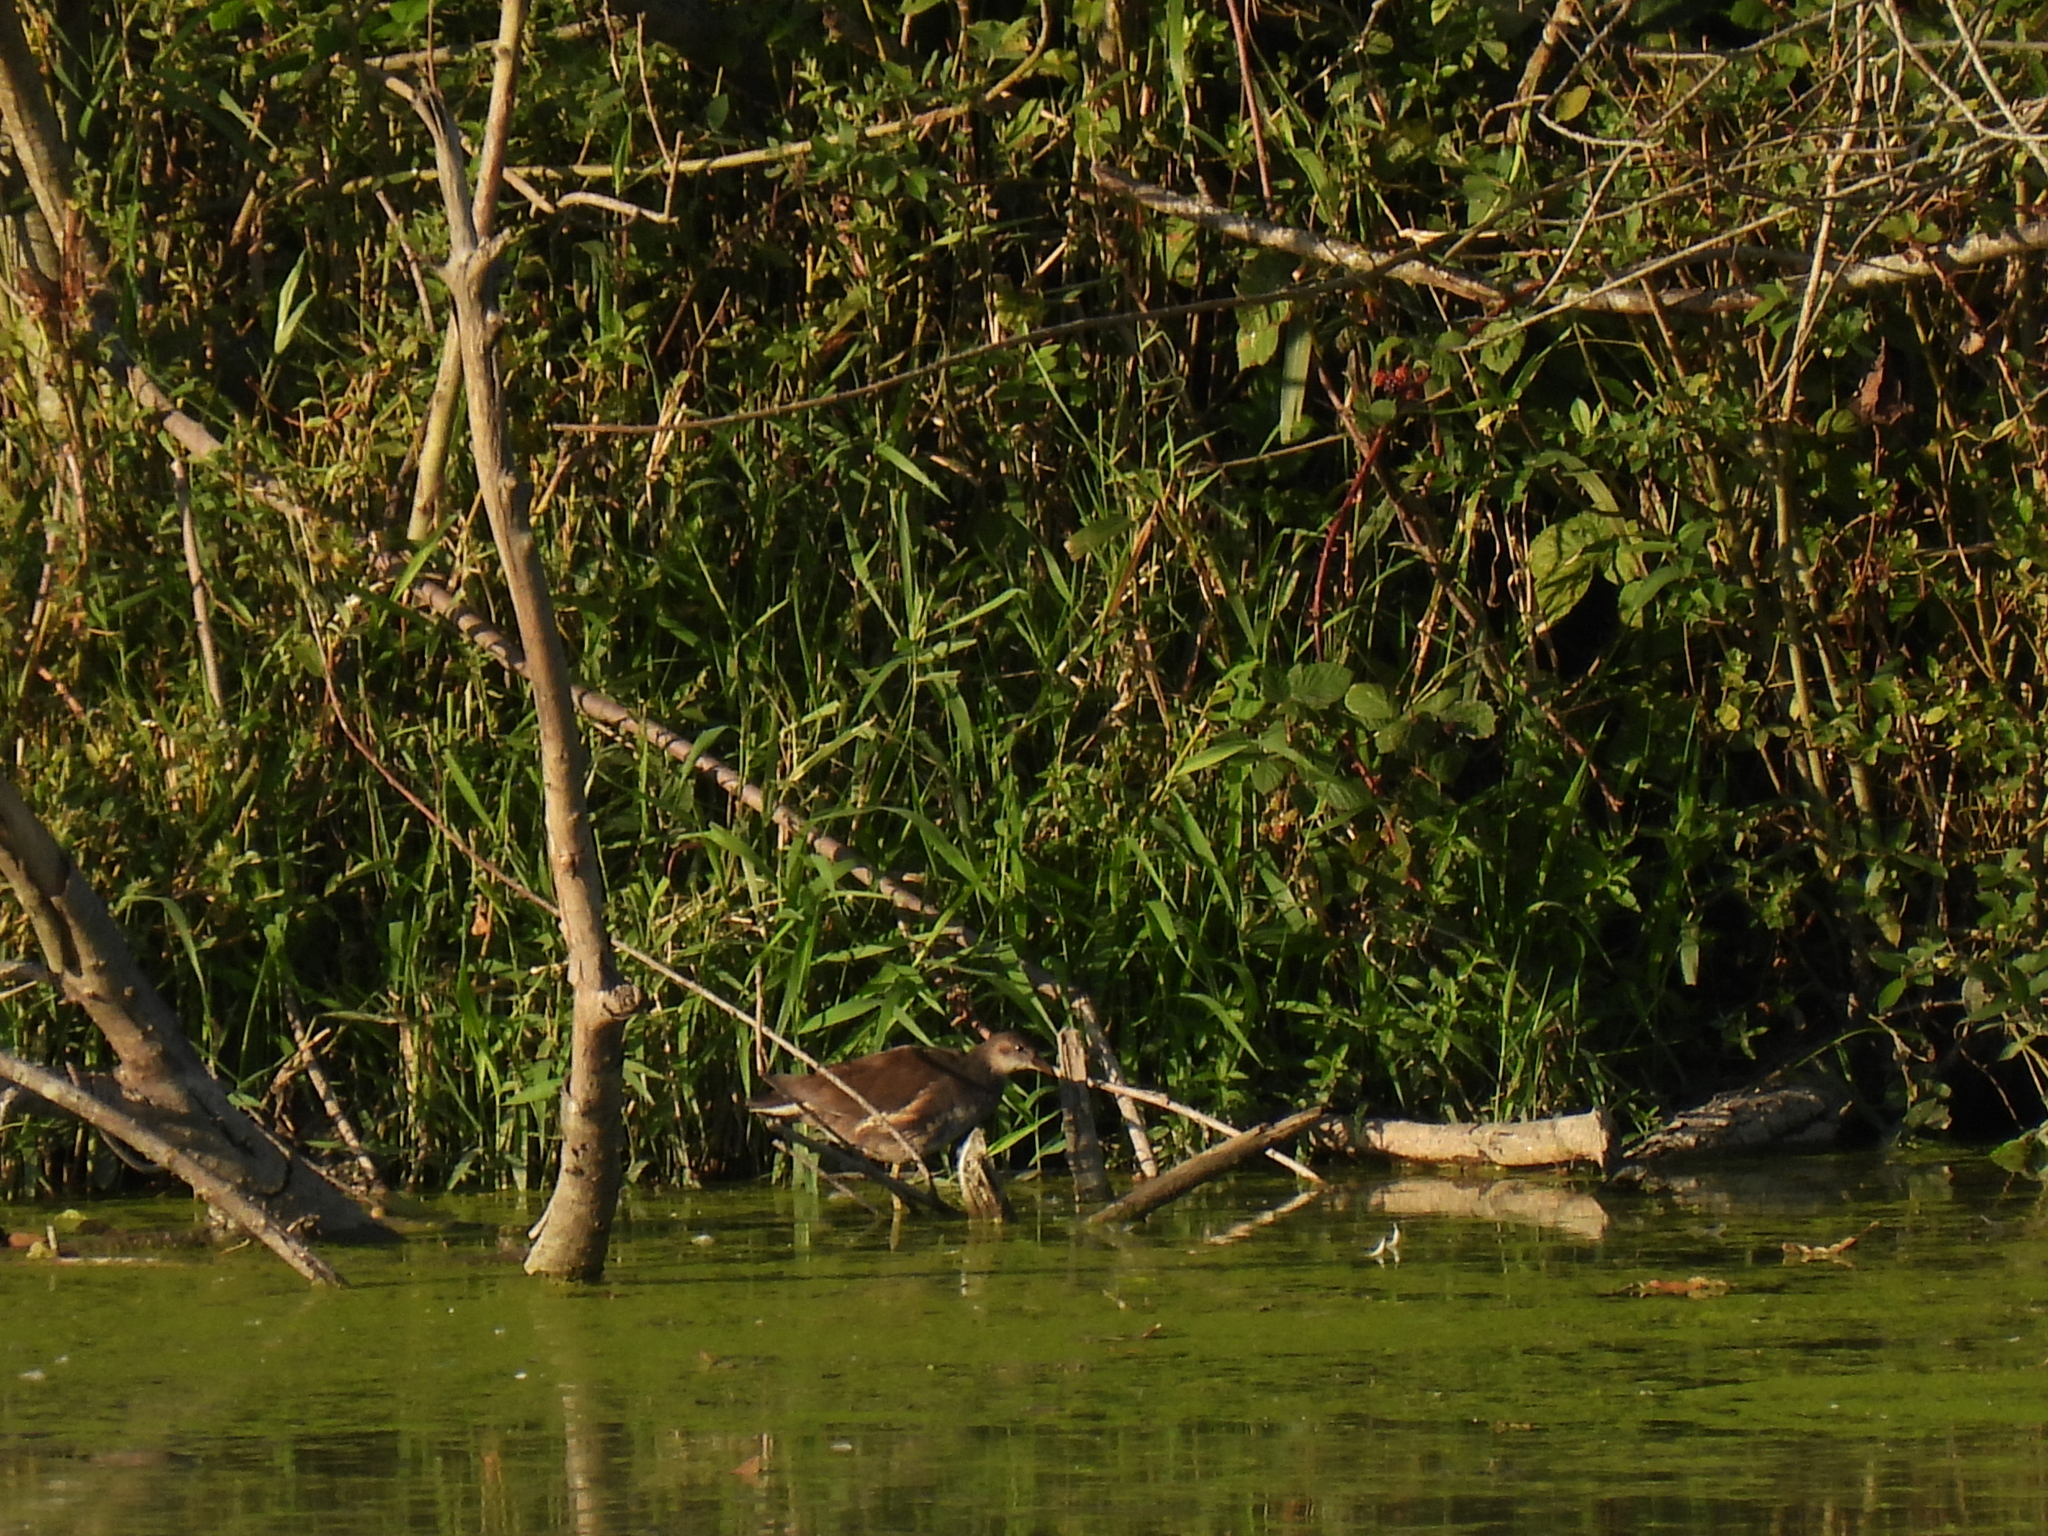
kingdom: Animalia
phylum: Chordata
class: Aves
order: Gruiformes
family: Rallidae
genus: Gallinula
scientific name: Gallinula chloropus
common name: Common moorhen
